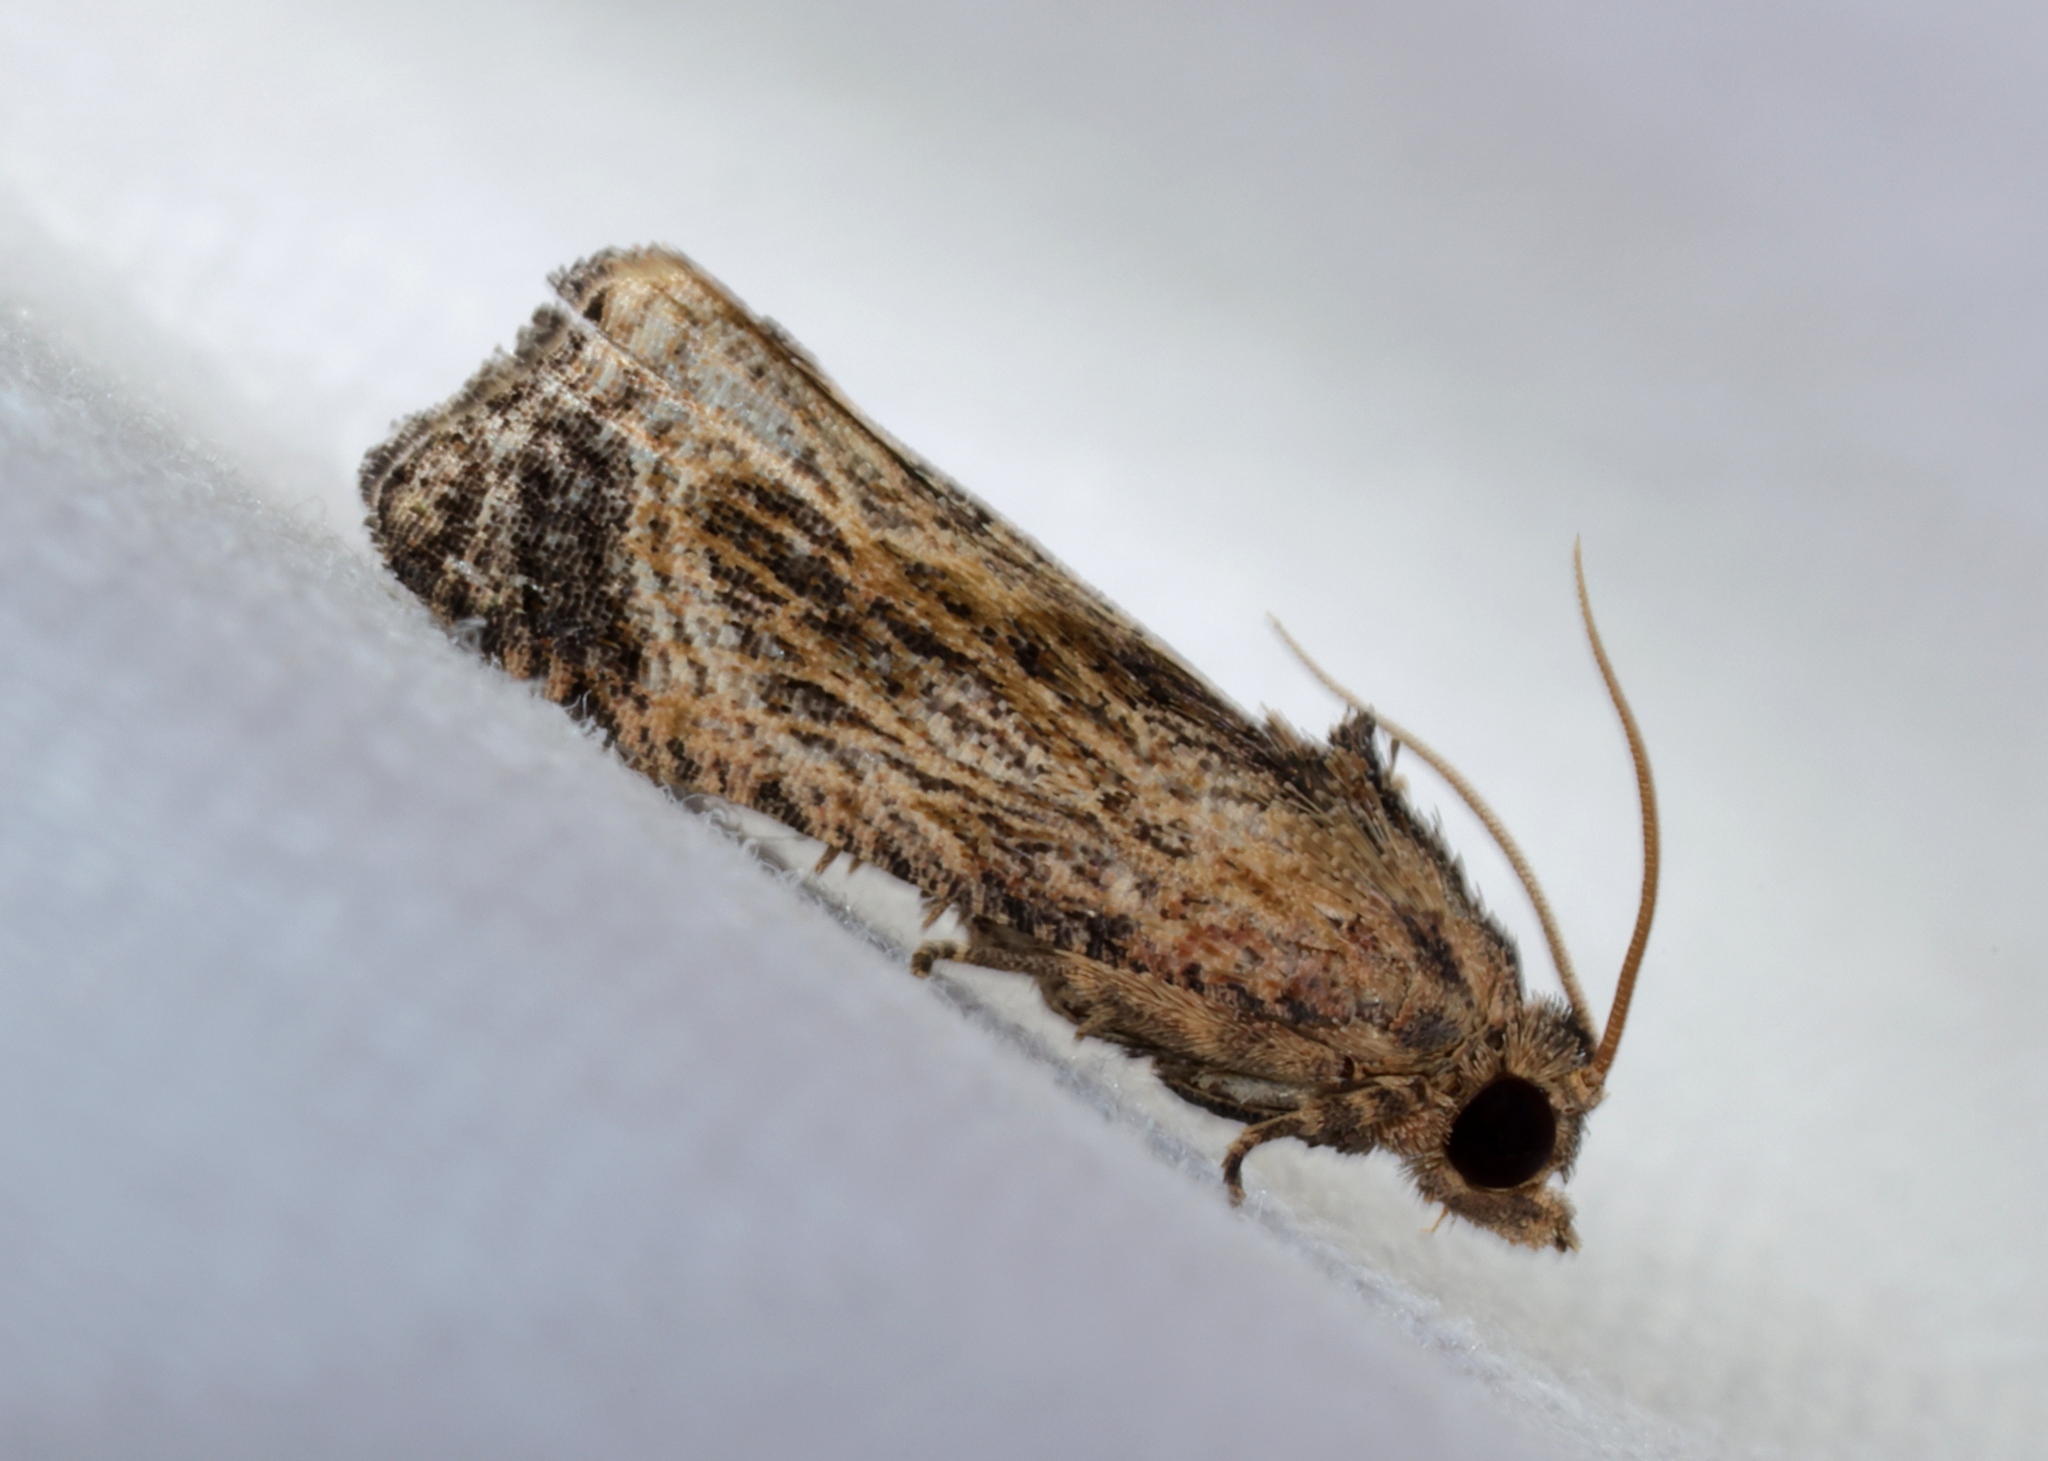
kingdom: Animalia
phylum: Arthropoda
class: Insecta
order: Lepidoptera
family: Tortricidae
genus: Cryptophlebia
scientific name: Cryptophlebia repletana
